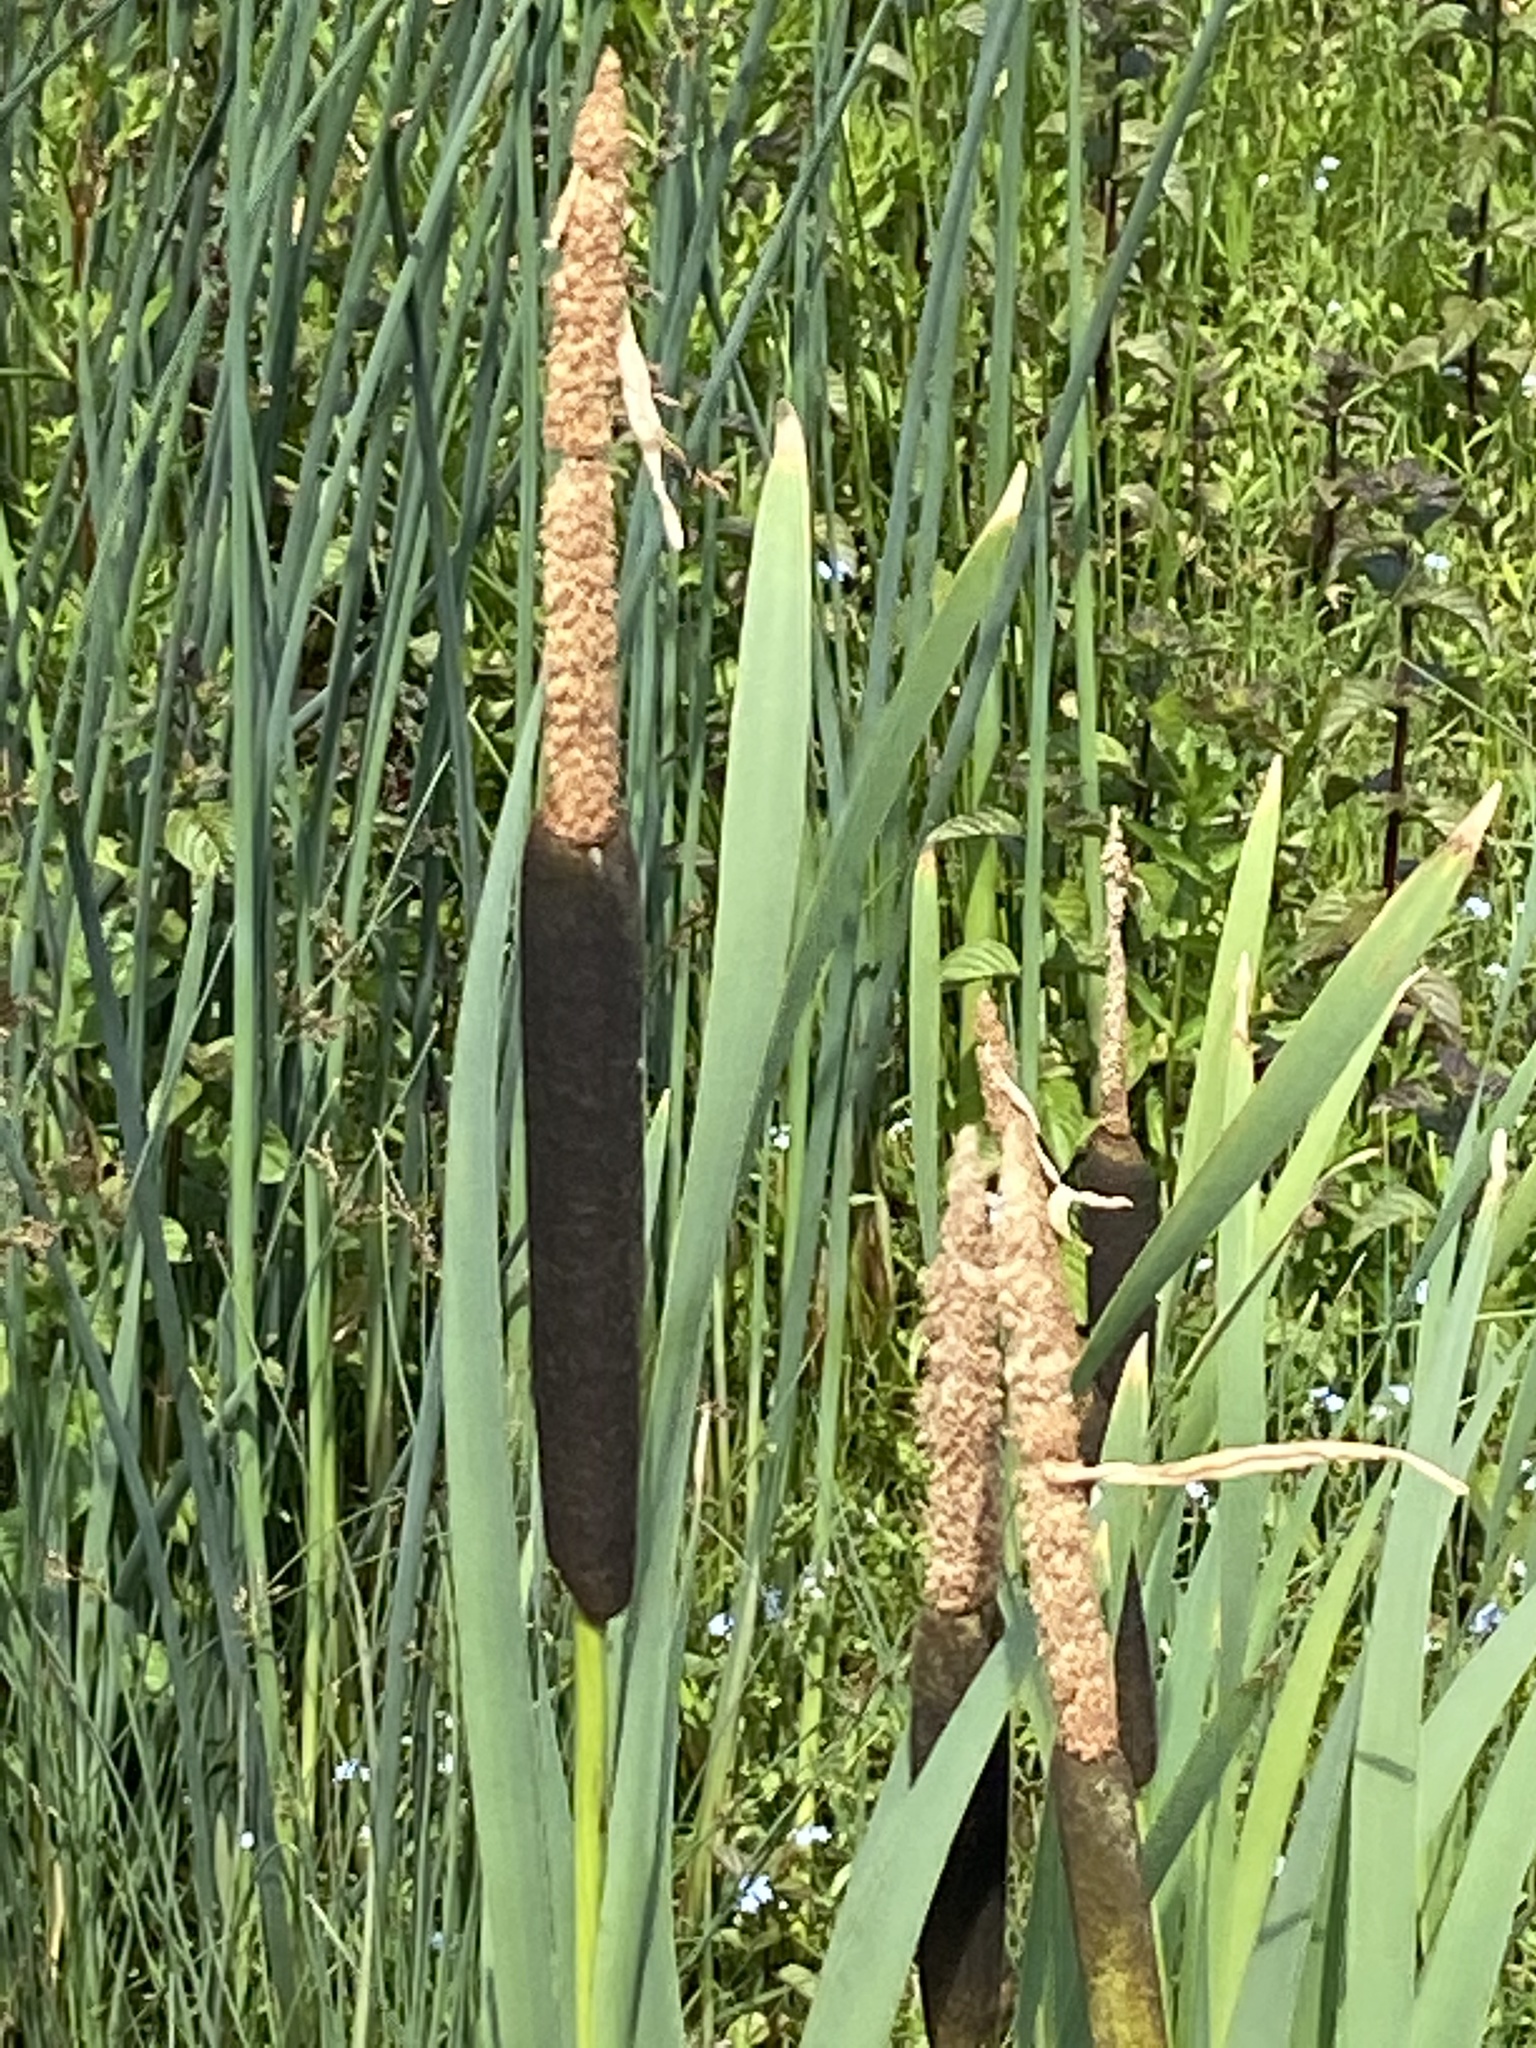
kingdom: Plantae
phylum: Tracheophyta
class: Liliopsida
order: Poales
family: Typhaceae
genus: Typha
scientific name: Typha latifolia
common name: Broadleaf cattail
